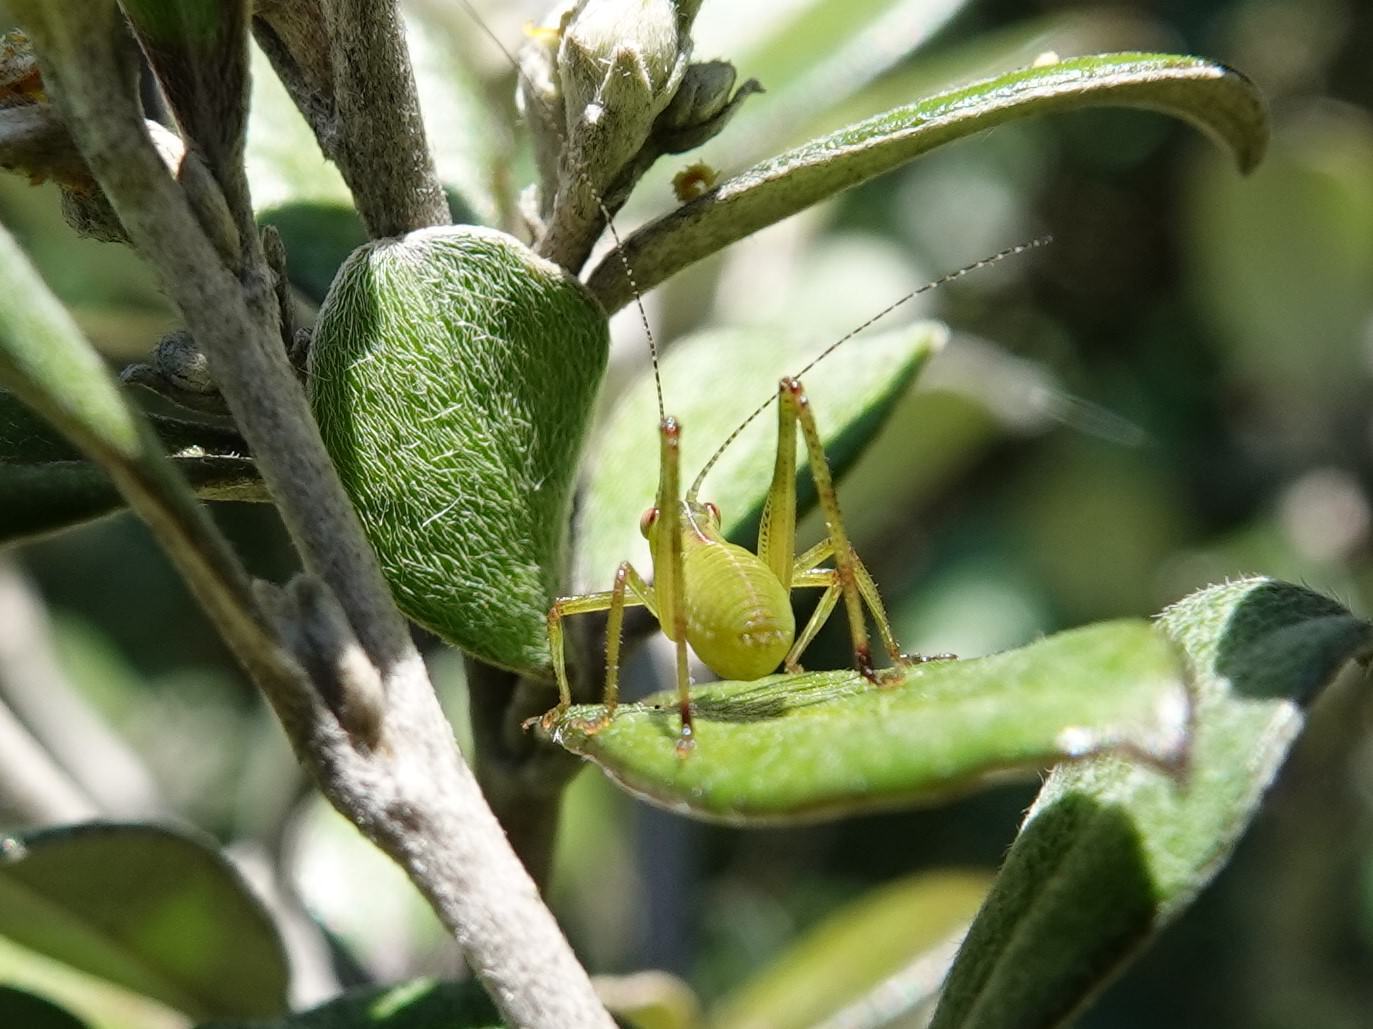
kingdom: Animalia
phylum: Arthropoda
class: Insecta
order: Orthoptera
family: Tettigoniidae
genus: Caedicia
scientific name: Caedicia simplex
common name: Common garden katydid
